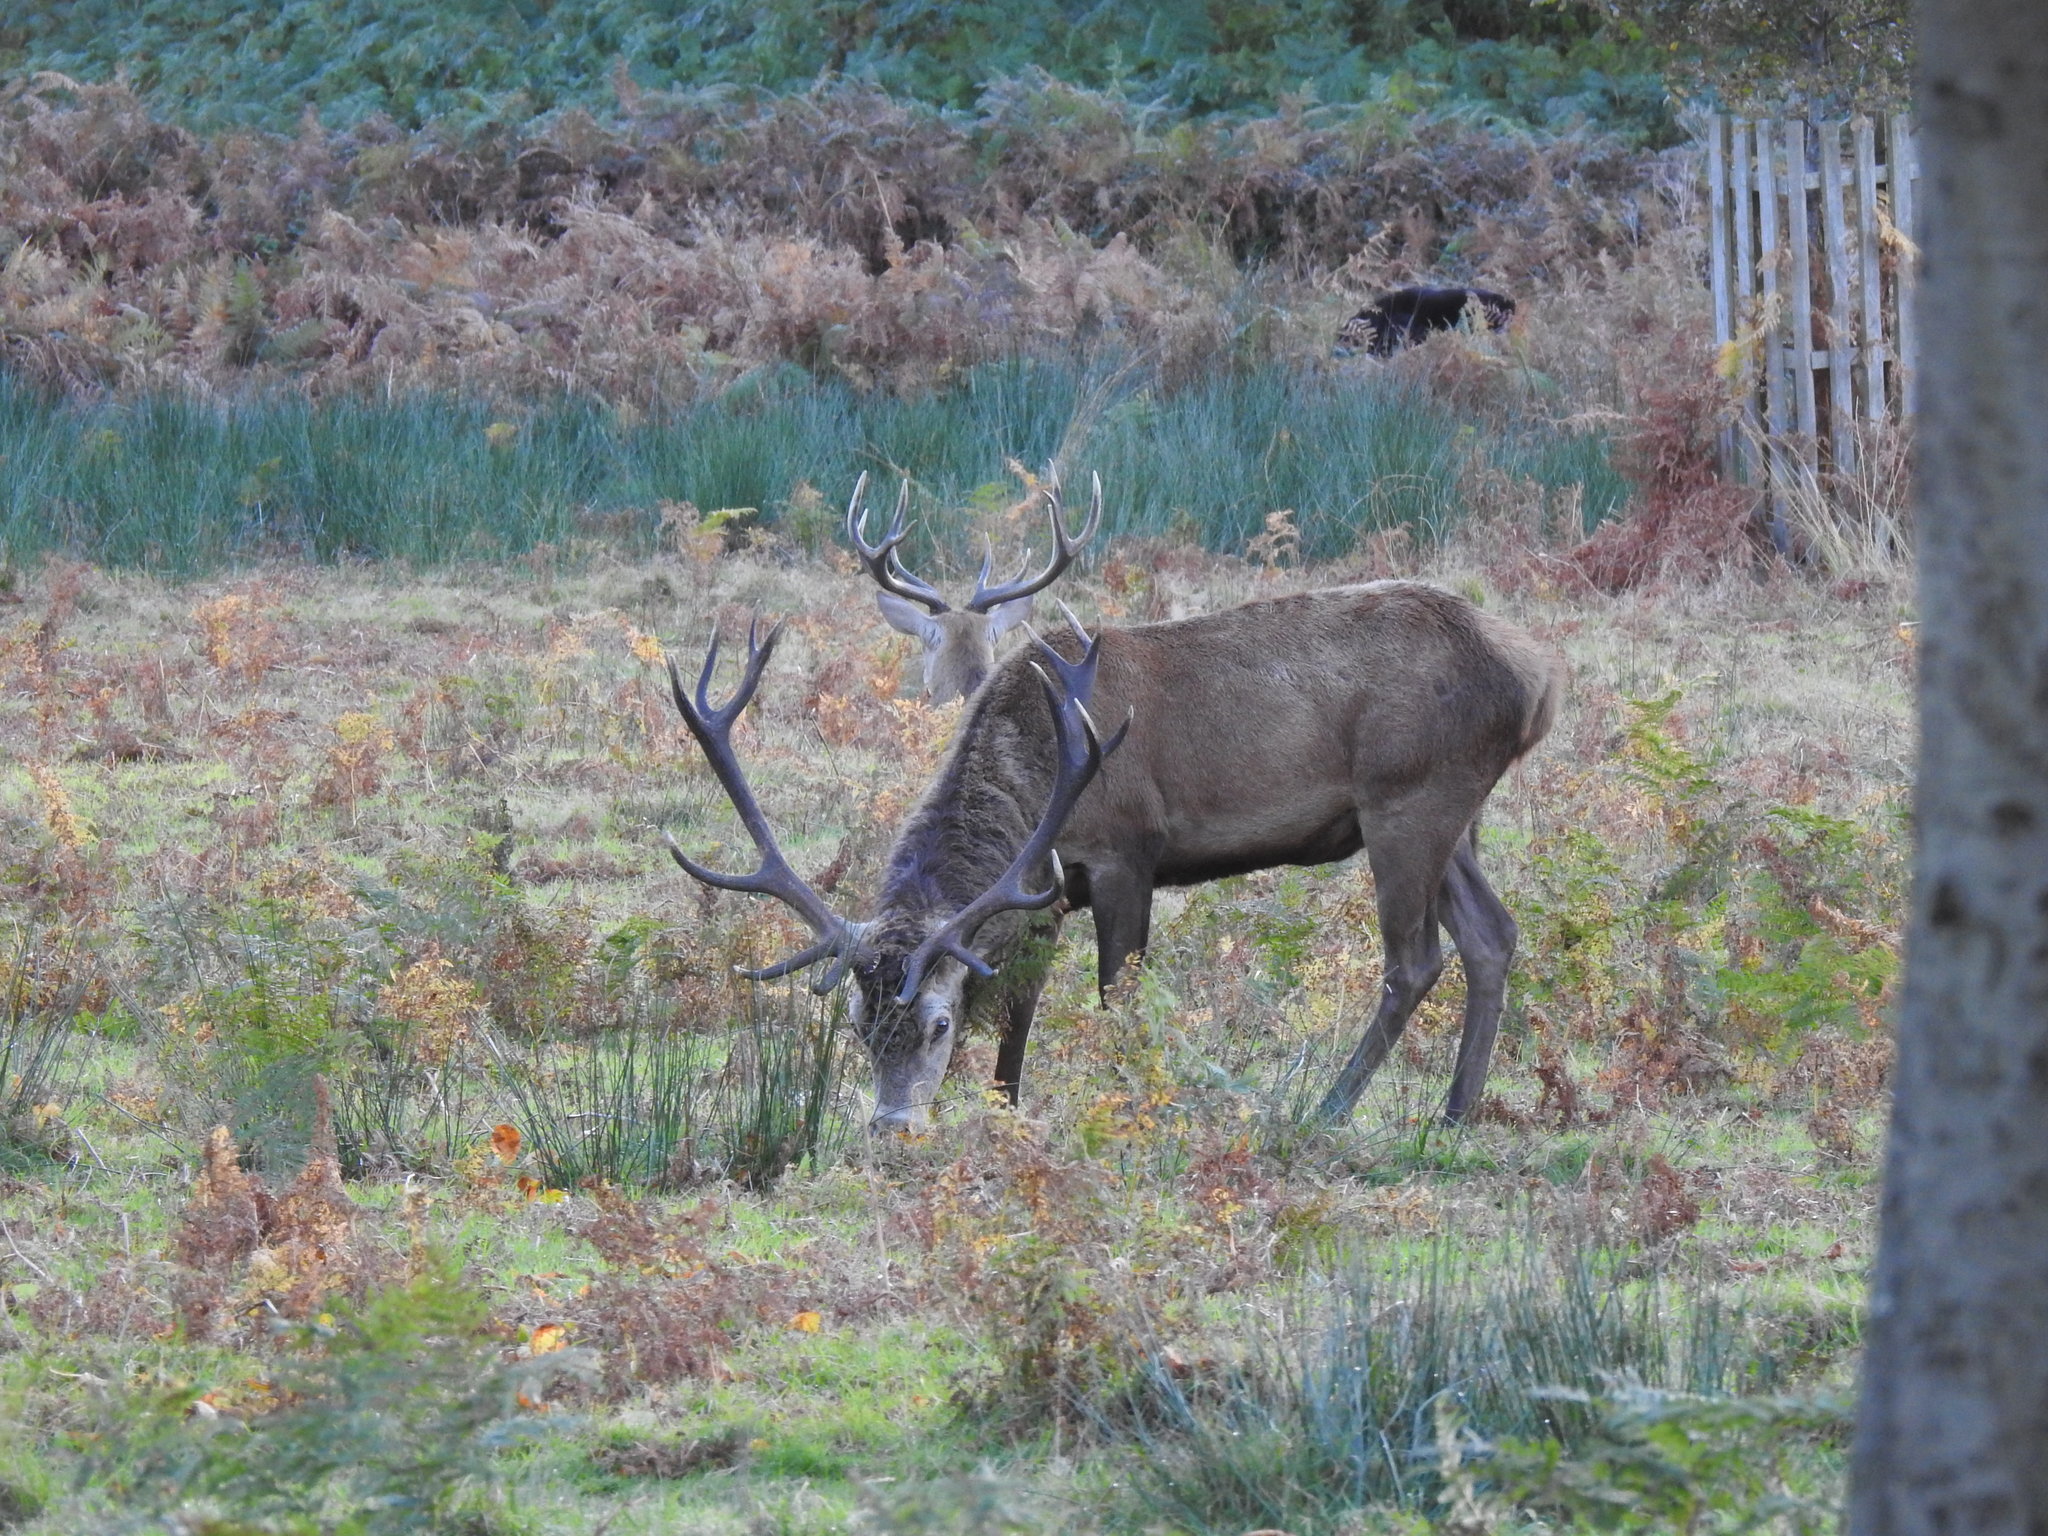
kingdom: Animalia
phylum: Chordata
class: Mammalia
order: Artiodactyla
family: Cervidae
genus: Cervus
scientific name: Cervus elaphus
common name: Red deer
